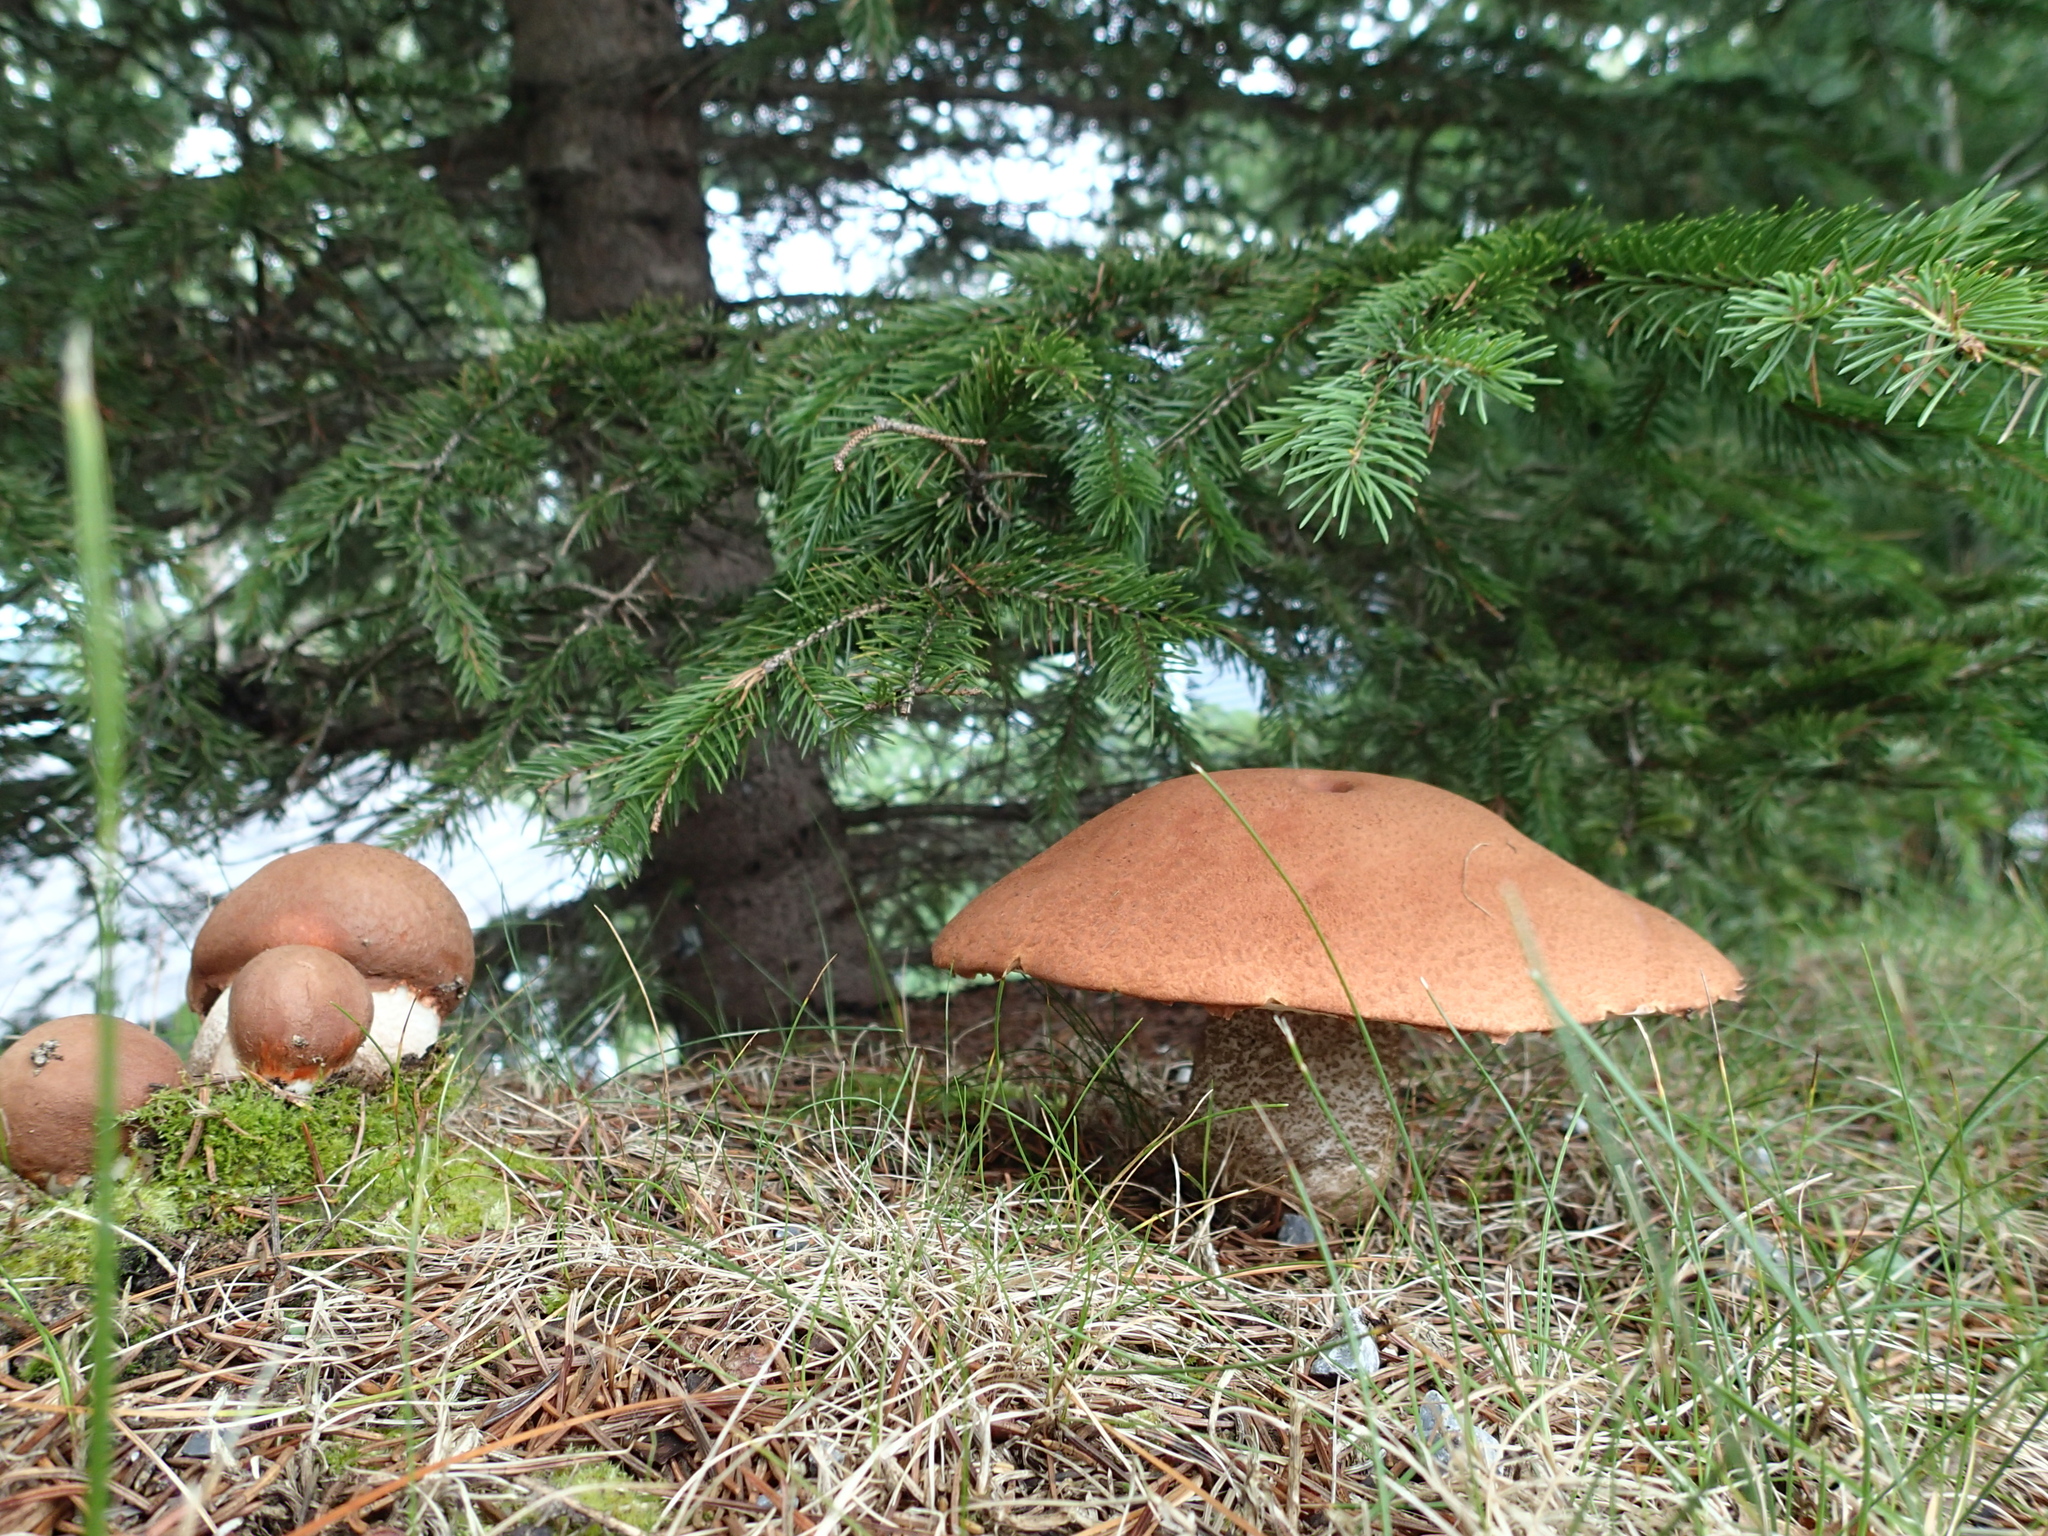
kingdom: Fungi
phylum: Basidiomycota
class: Agaricomycetes
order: Boletales
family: Boletaceae
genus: Leccinum
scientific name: Leccinum piceinum
